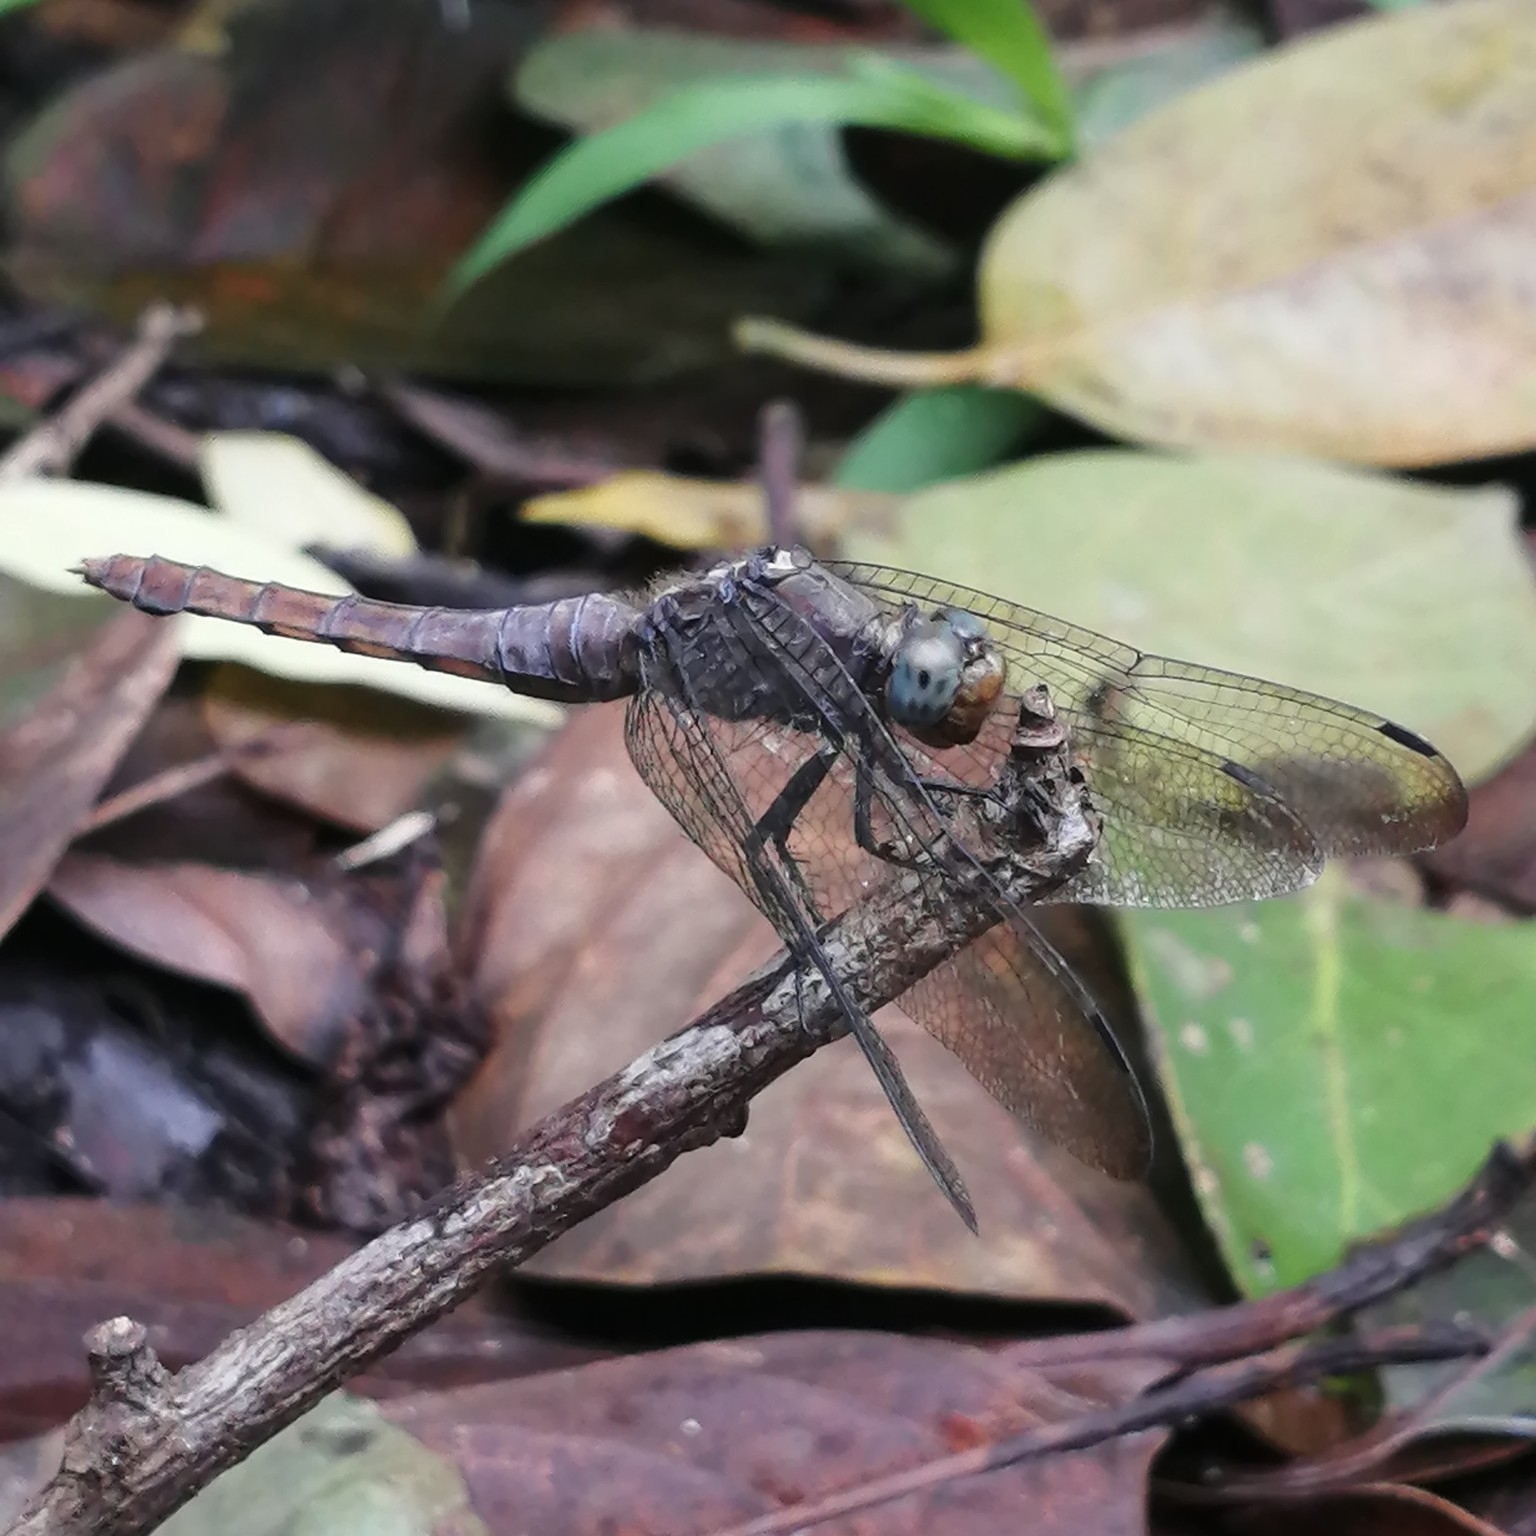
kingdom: Animalia
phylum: Arthropoda
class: Insecta
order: Odonata
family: Libellulidae
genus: Orthetrum
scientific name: Orthetrum pruinosum
